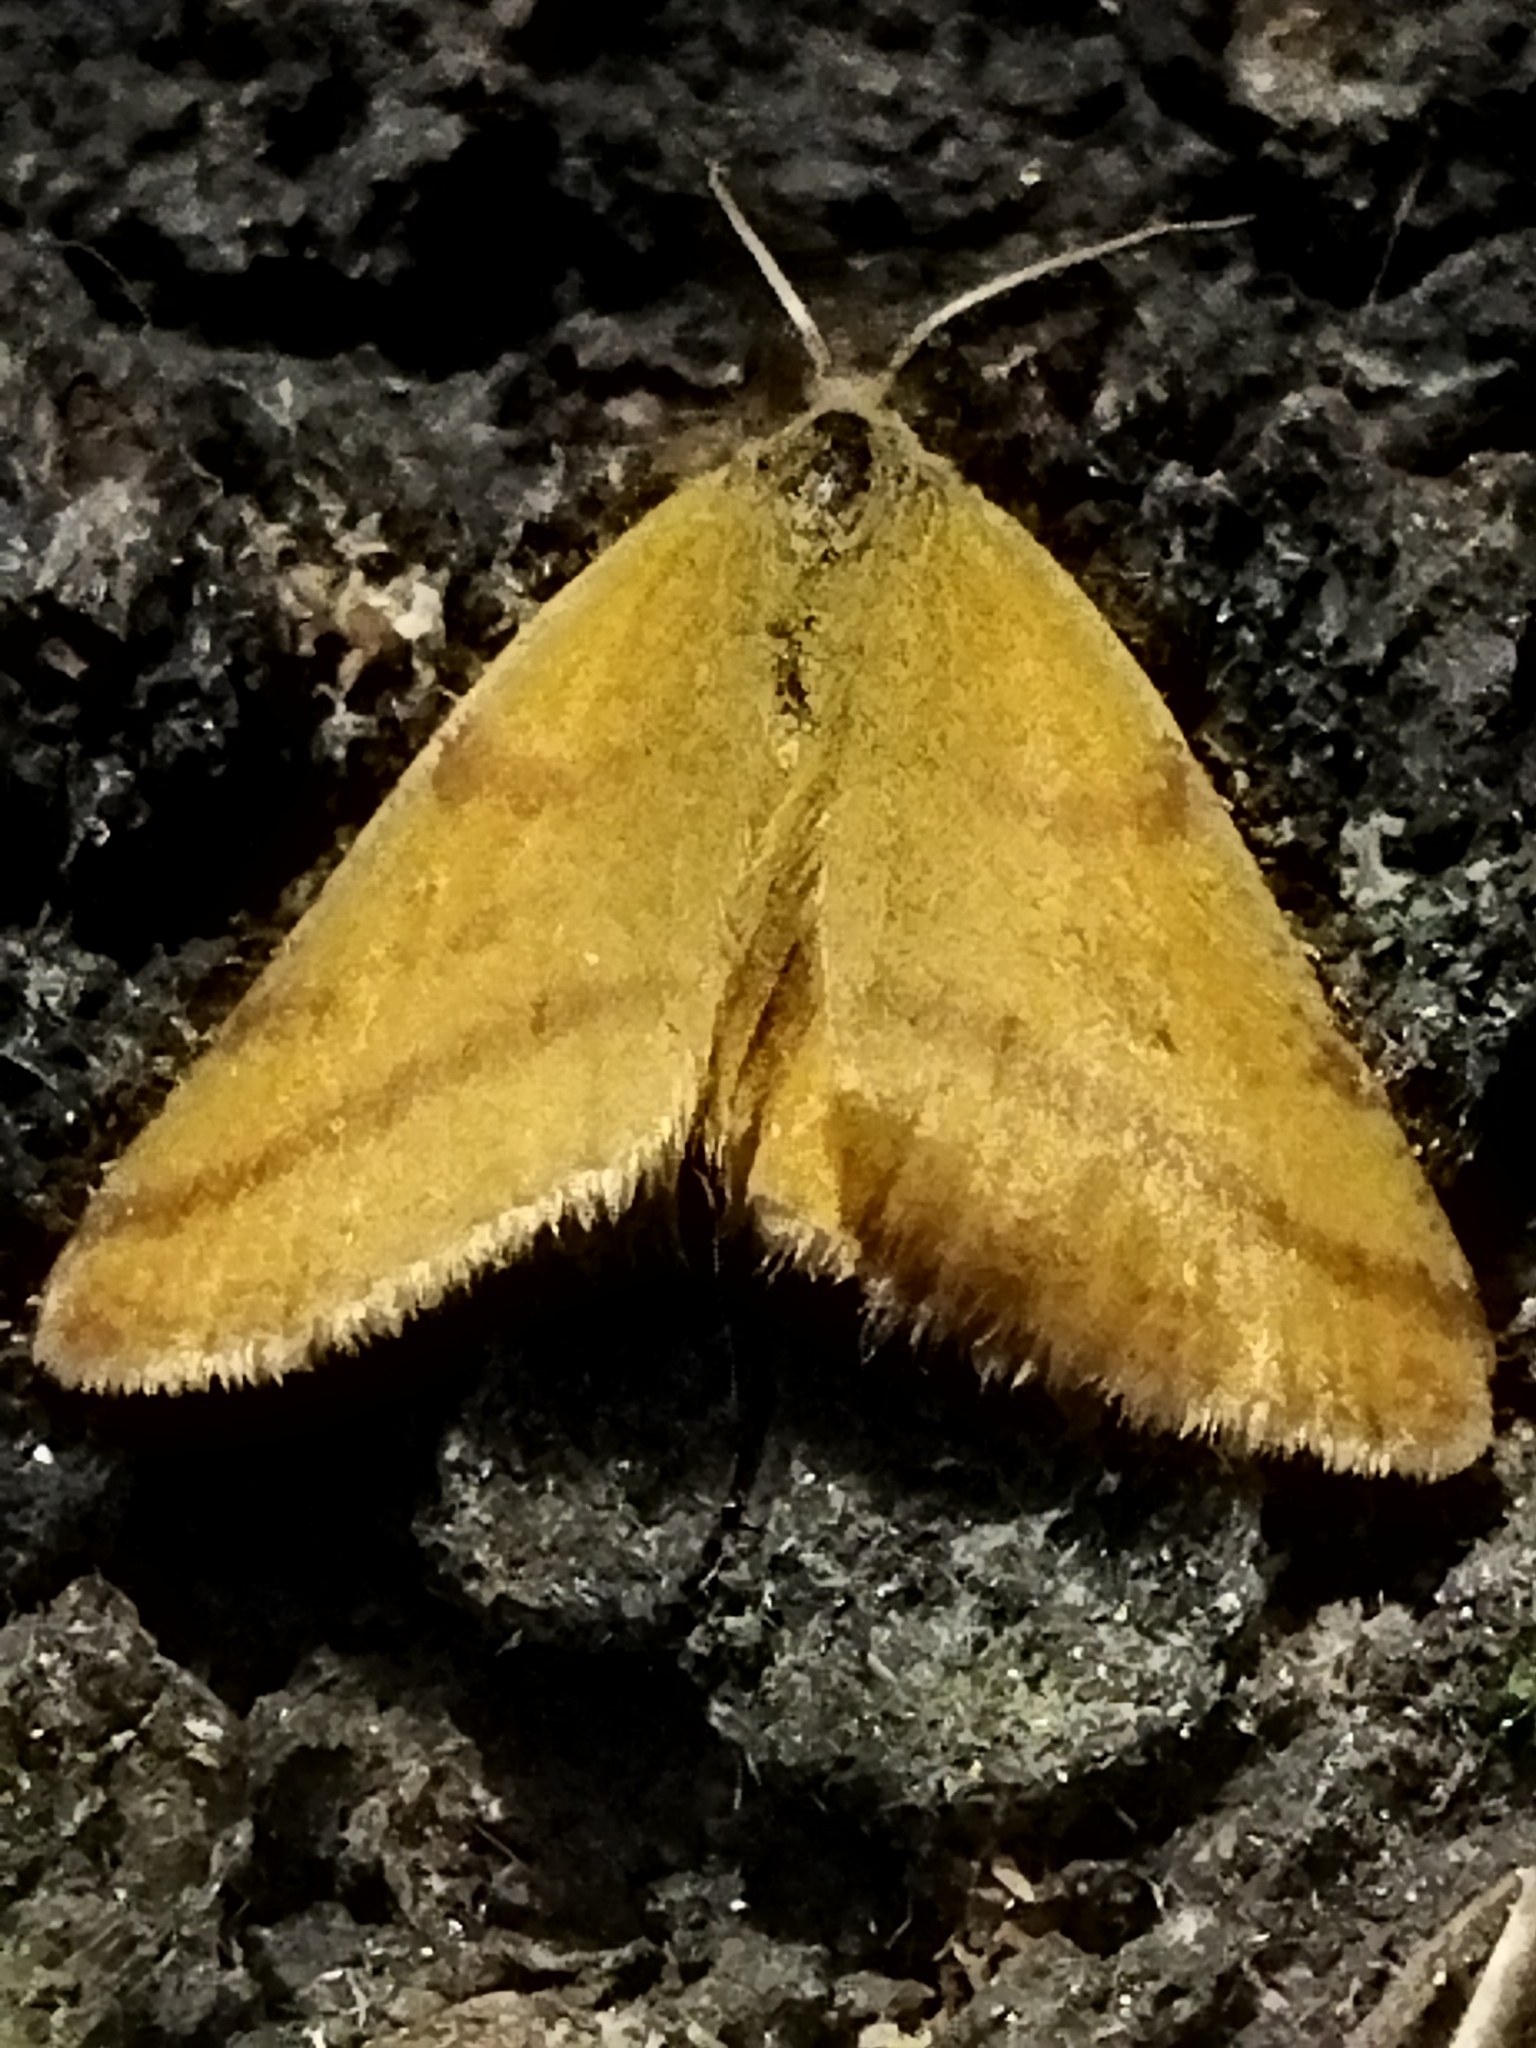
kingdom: Animalia
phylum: Arthropoda
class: Insecta
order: Lepidoptera
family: Geometridae
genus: Lythria
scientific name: Lythria purpuraria
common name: Purple-barred yellow
